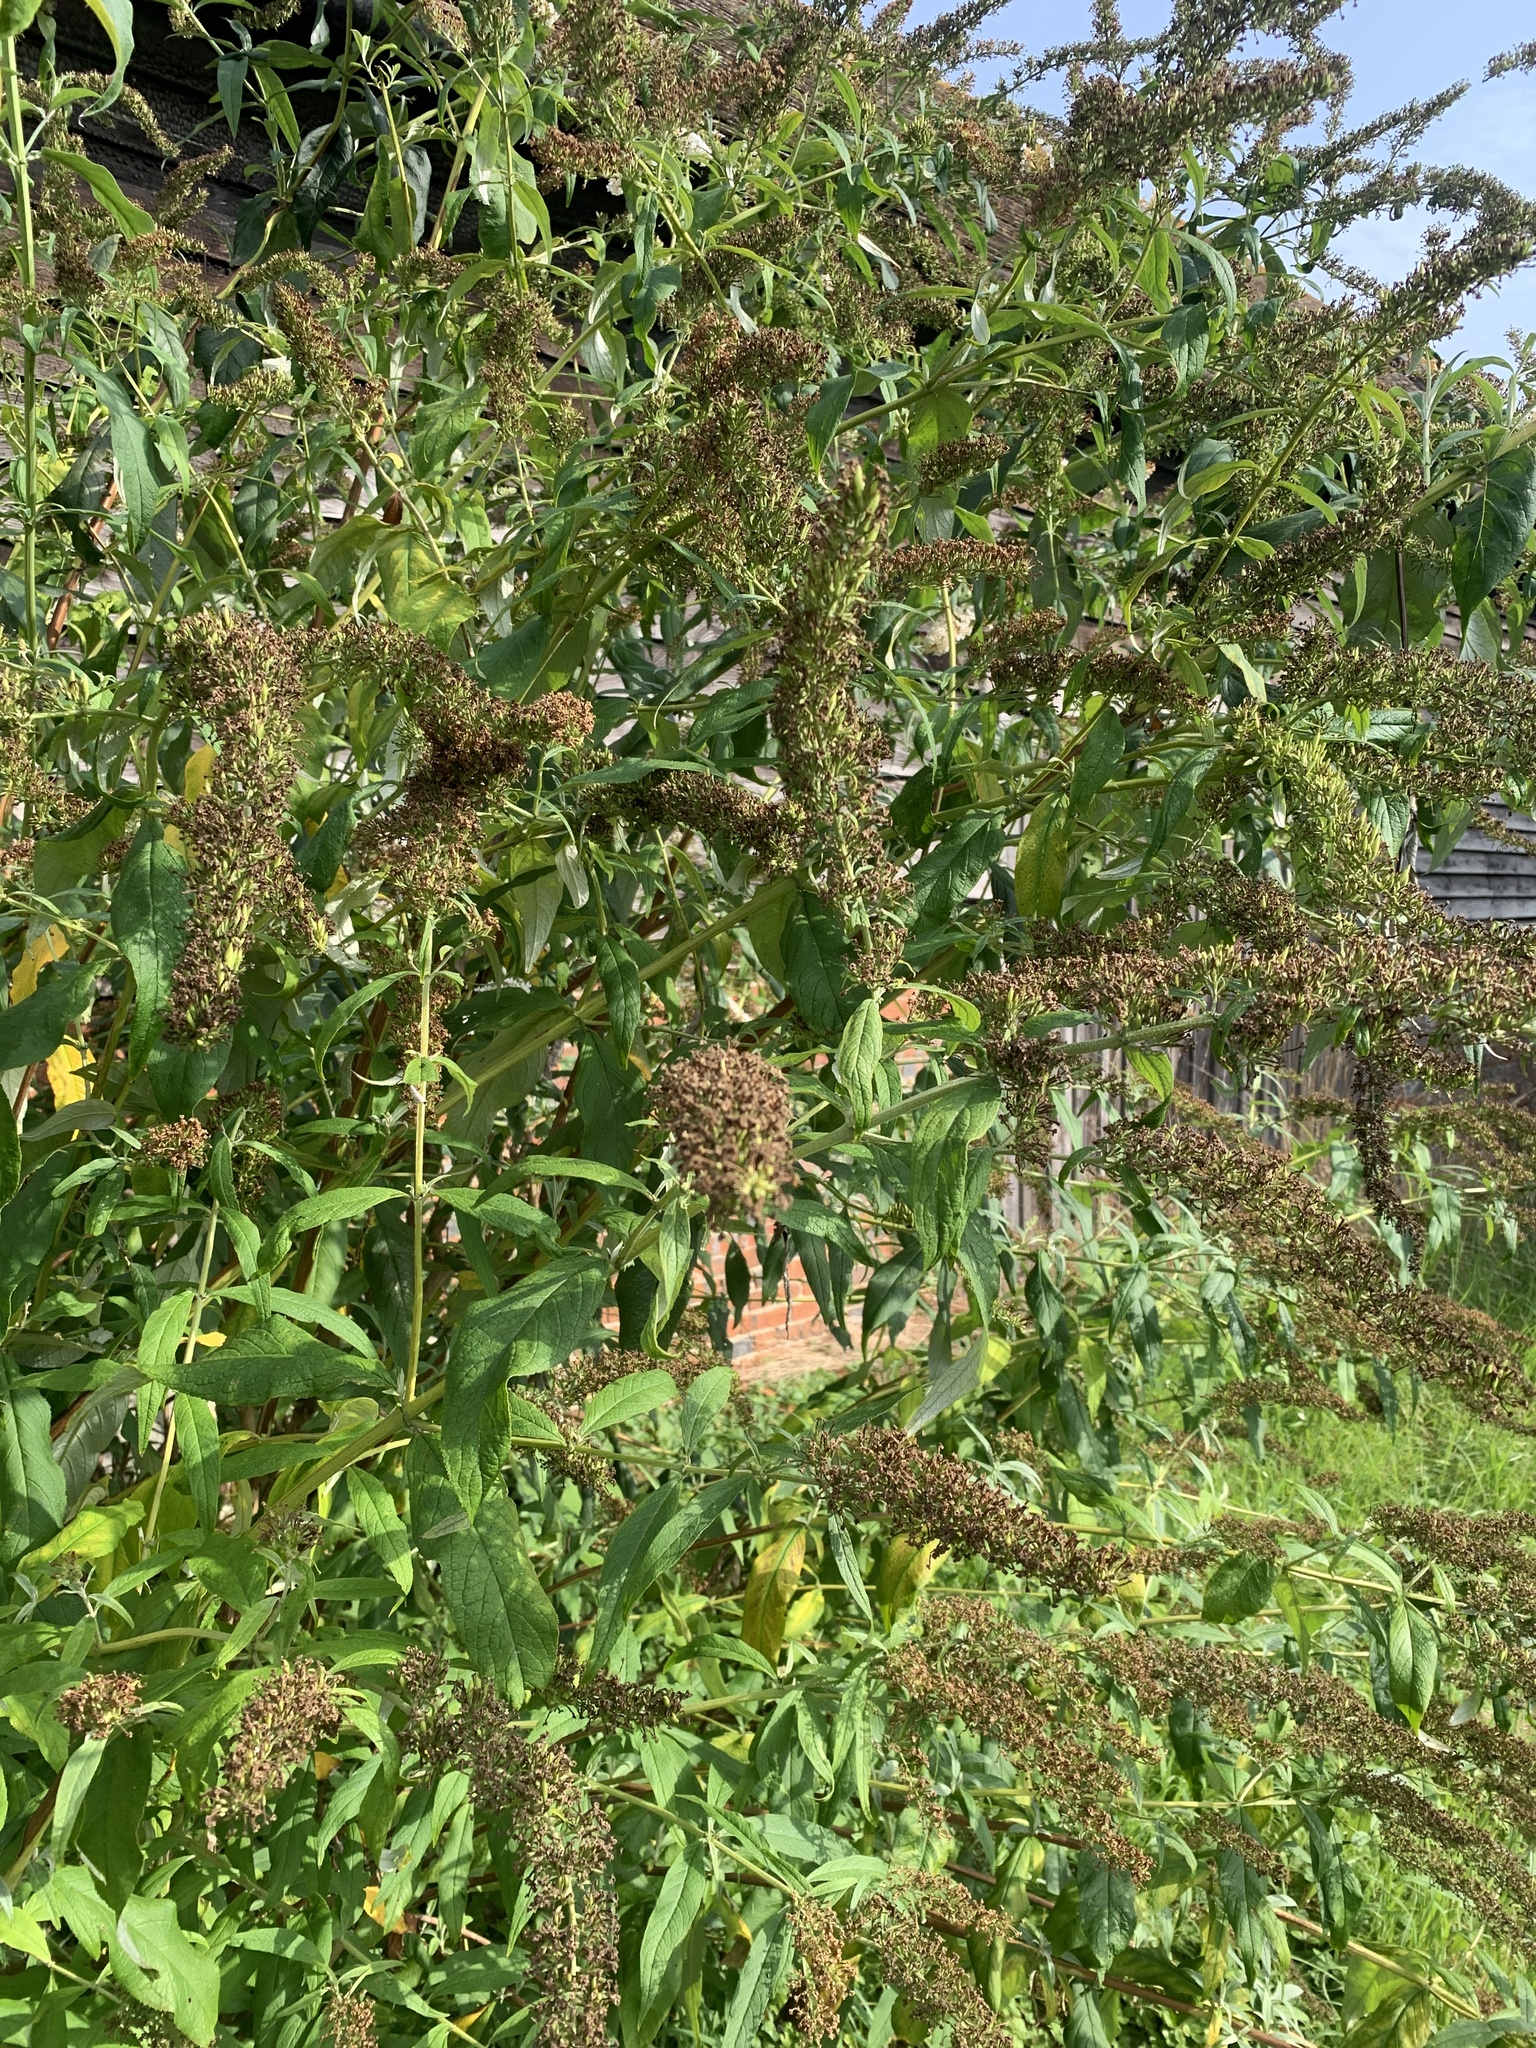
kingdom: Plantae
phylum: Tracheophyta
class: Magnoliopsida
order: Lamiales
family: Scrophulariaceae
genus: Buddleja
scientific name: Buddleja davidii
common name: Butterfly-bush
